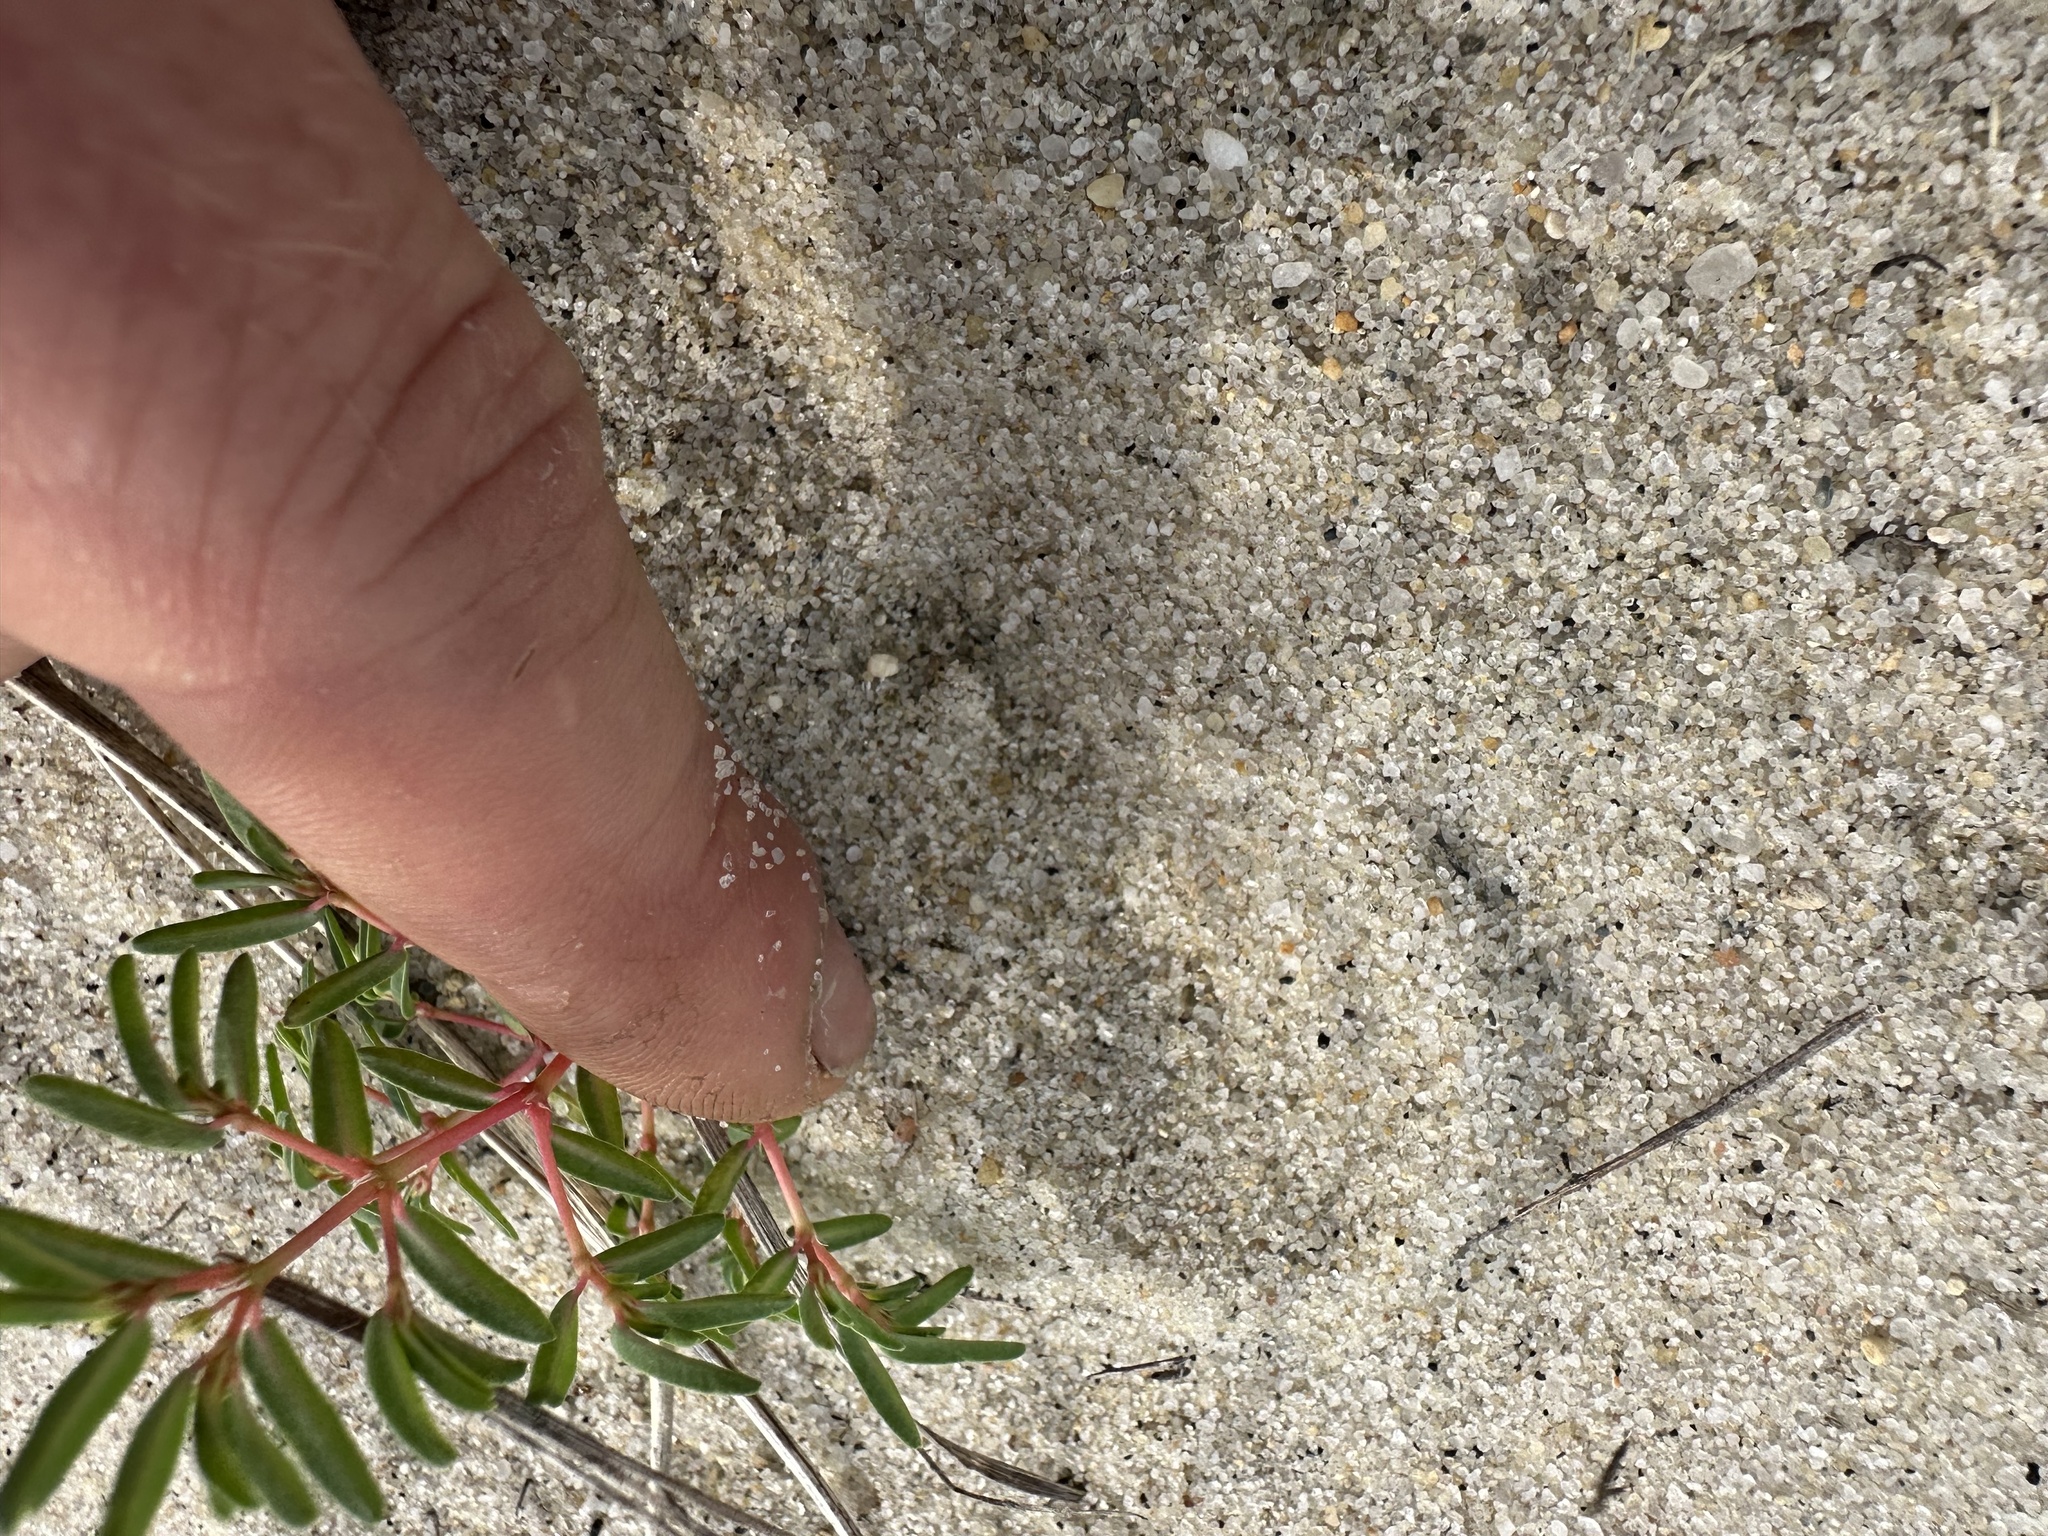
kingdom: Plantae
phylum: Tracheophyta
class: Magnoliopsida
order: Malpighiales
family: Euphorbiaceae
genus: Euphorbia
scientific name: Euphorbia polygonifolia
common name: Knotweed spurge
